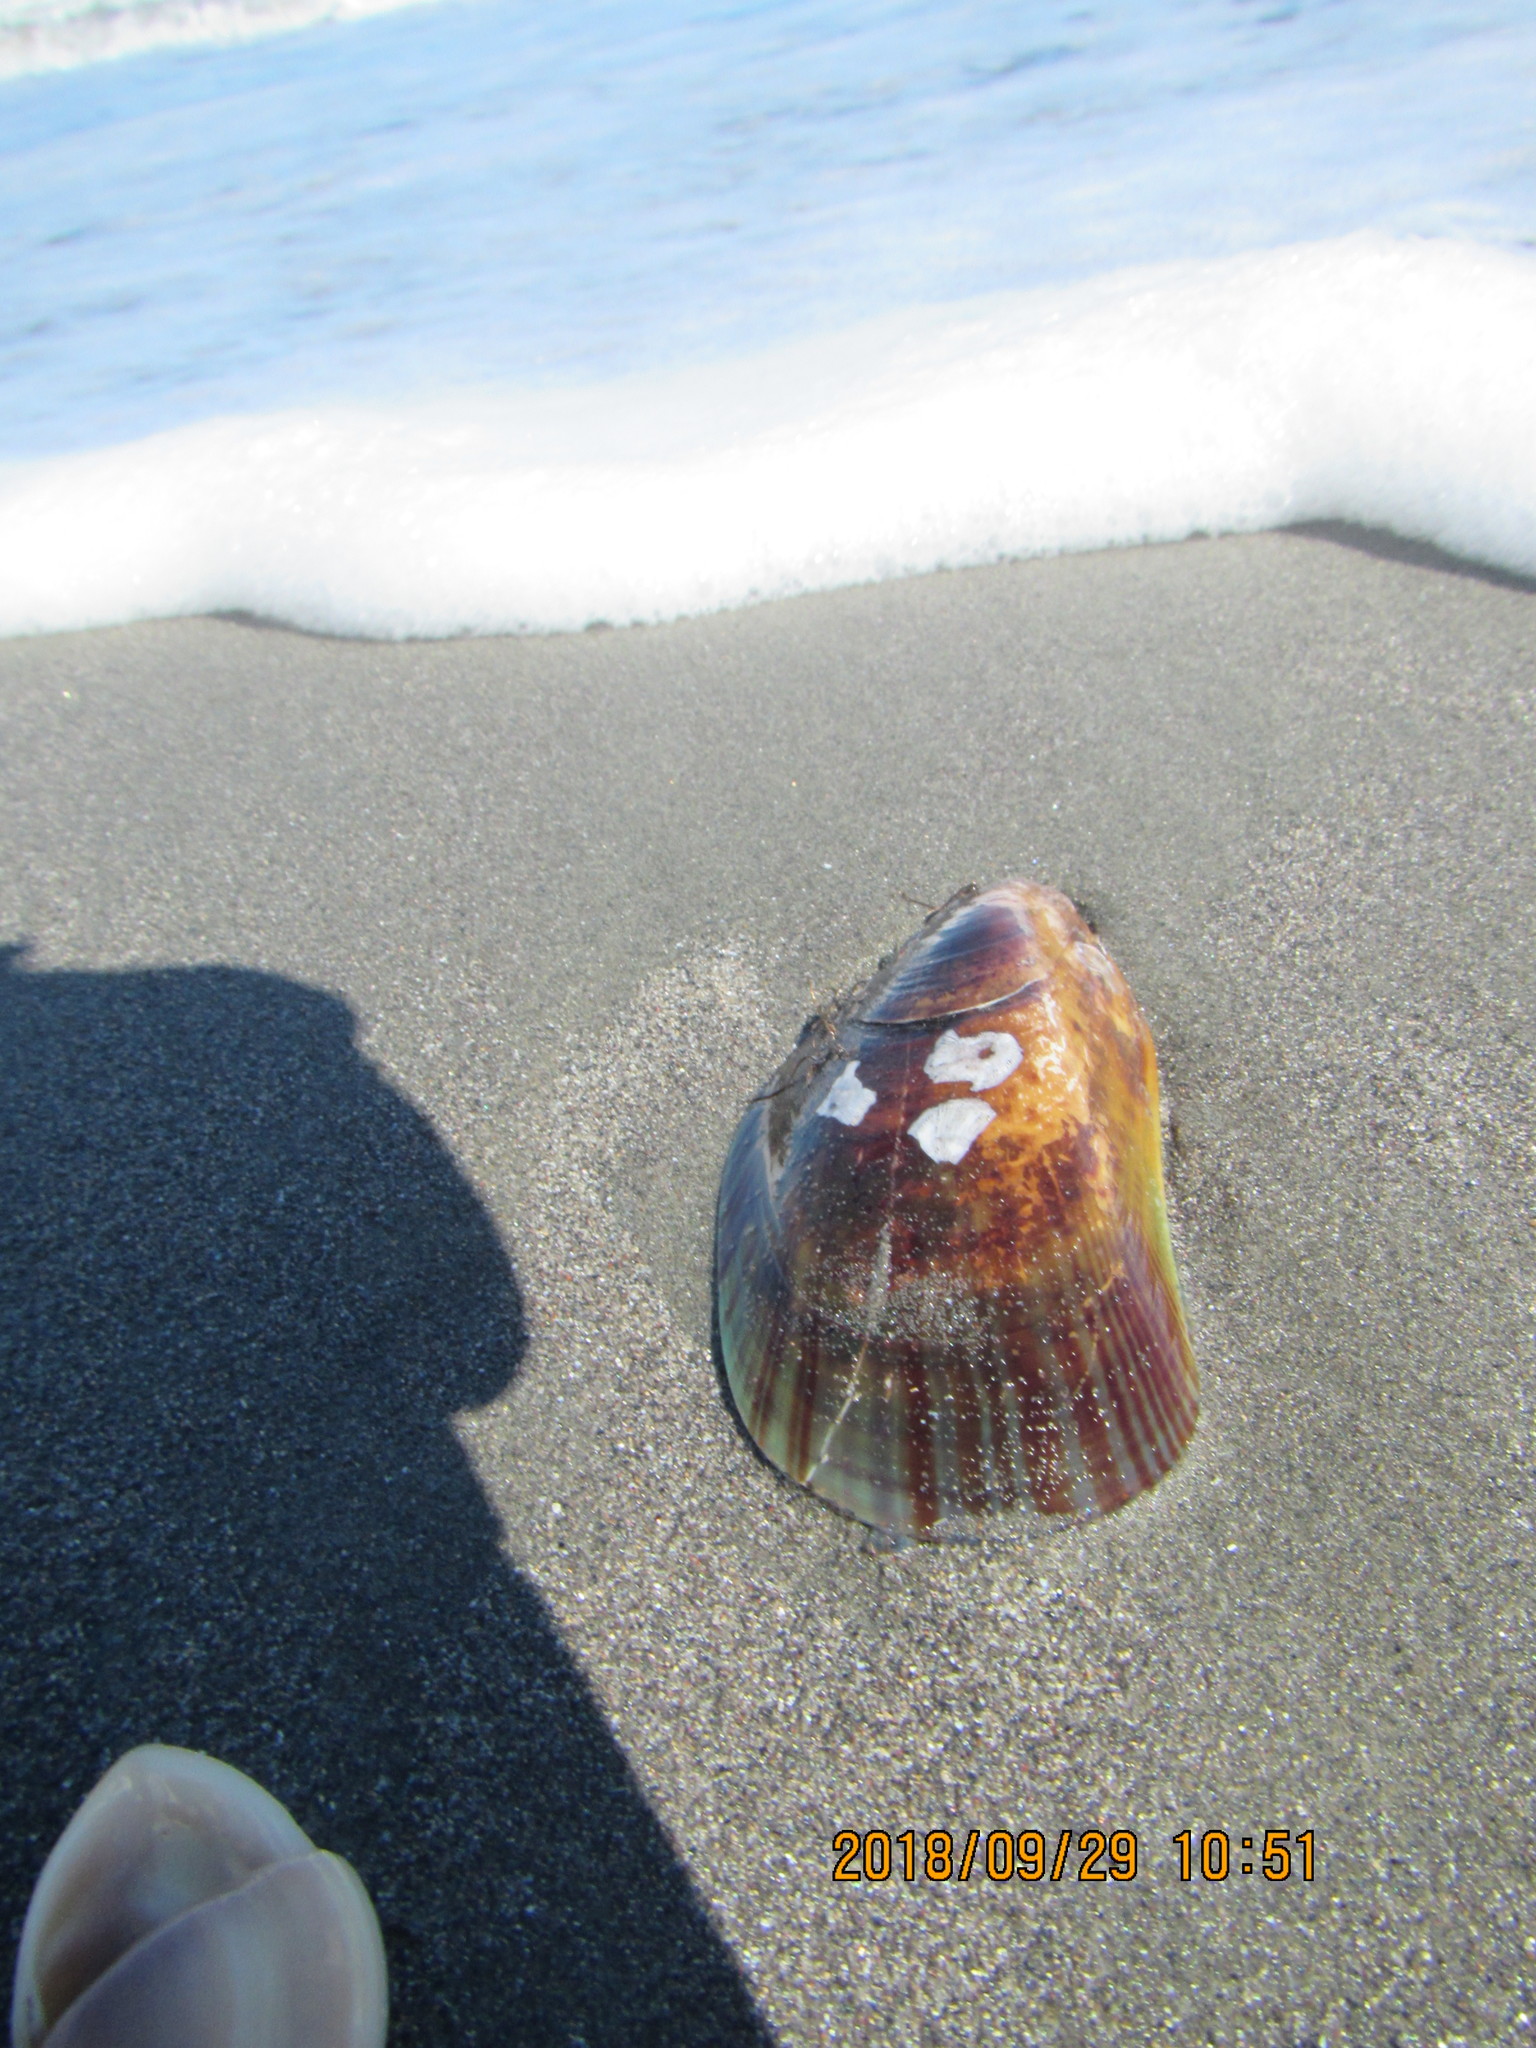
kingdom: Animalia
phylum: Mollusca
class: Bivalvia
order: Mytilida
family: Mytilidae
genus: Perna
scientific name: Perna canaliculus
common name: New zealand greenshelltm
